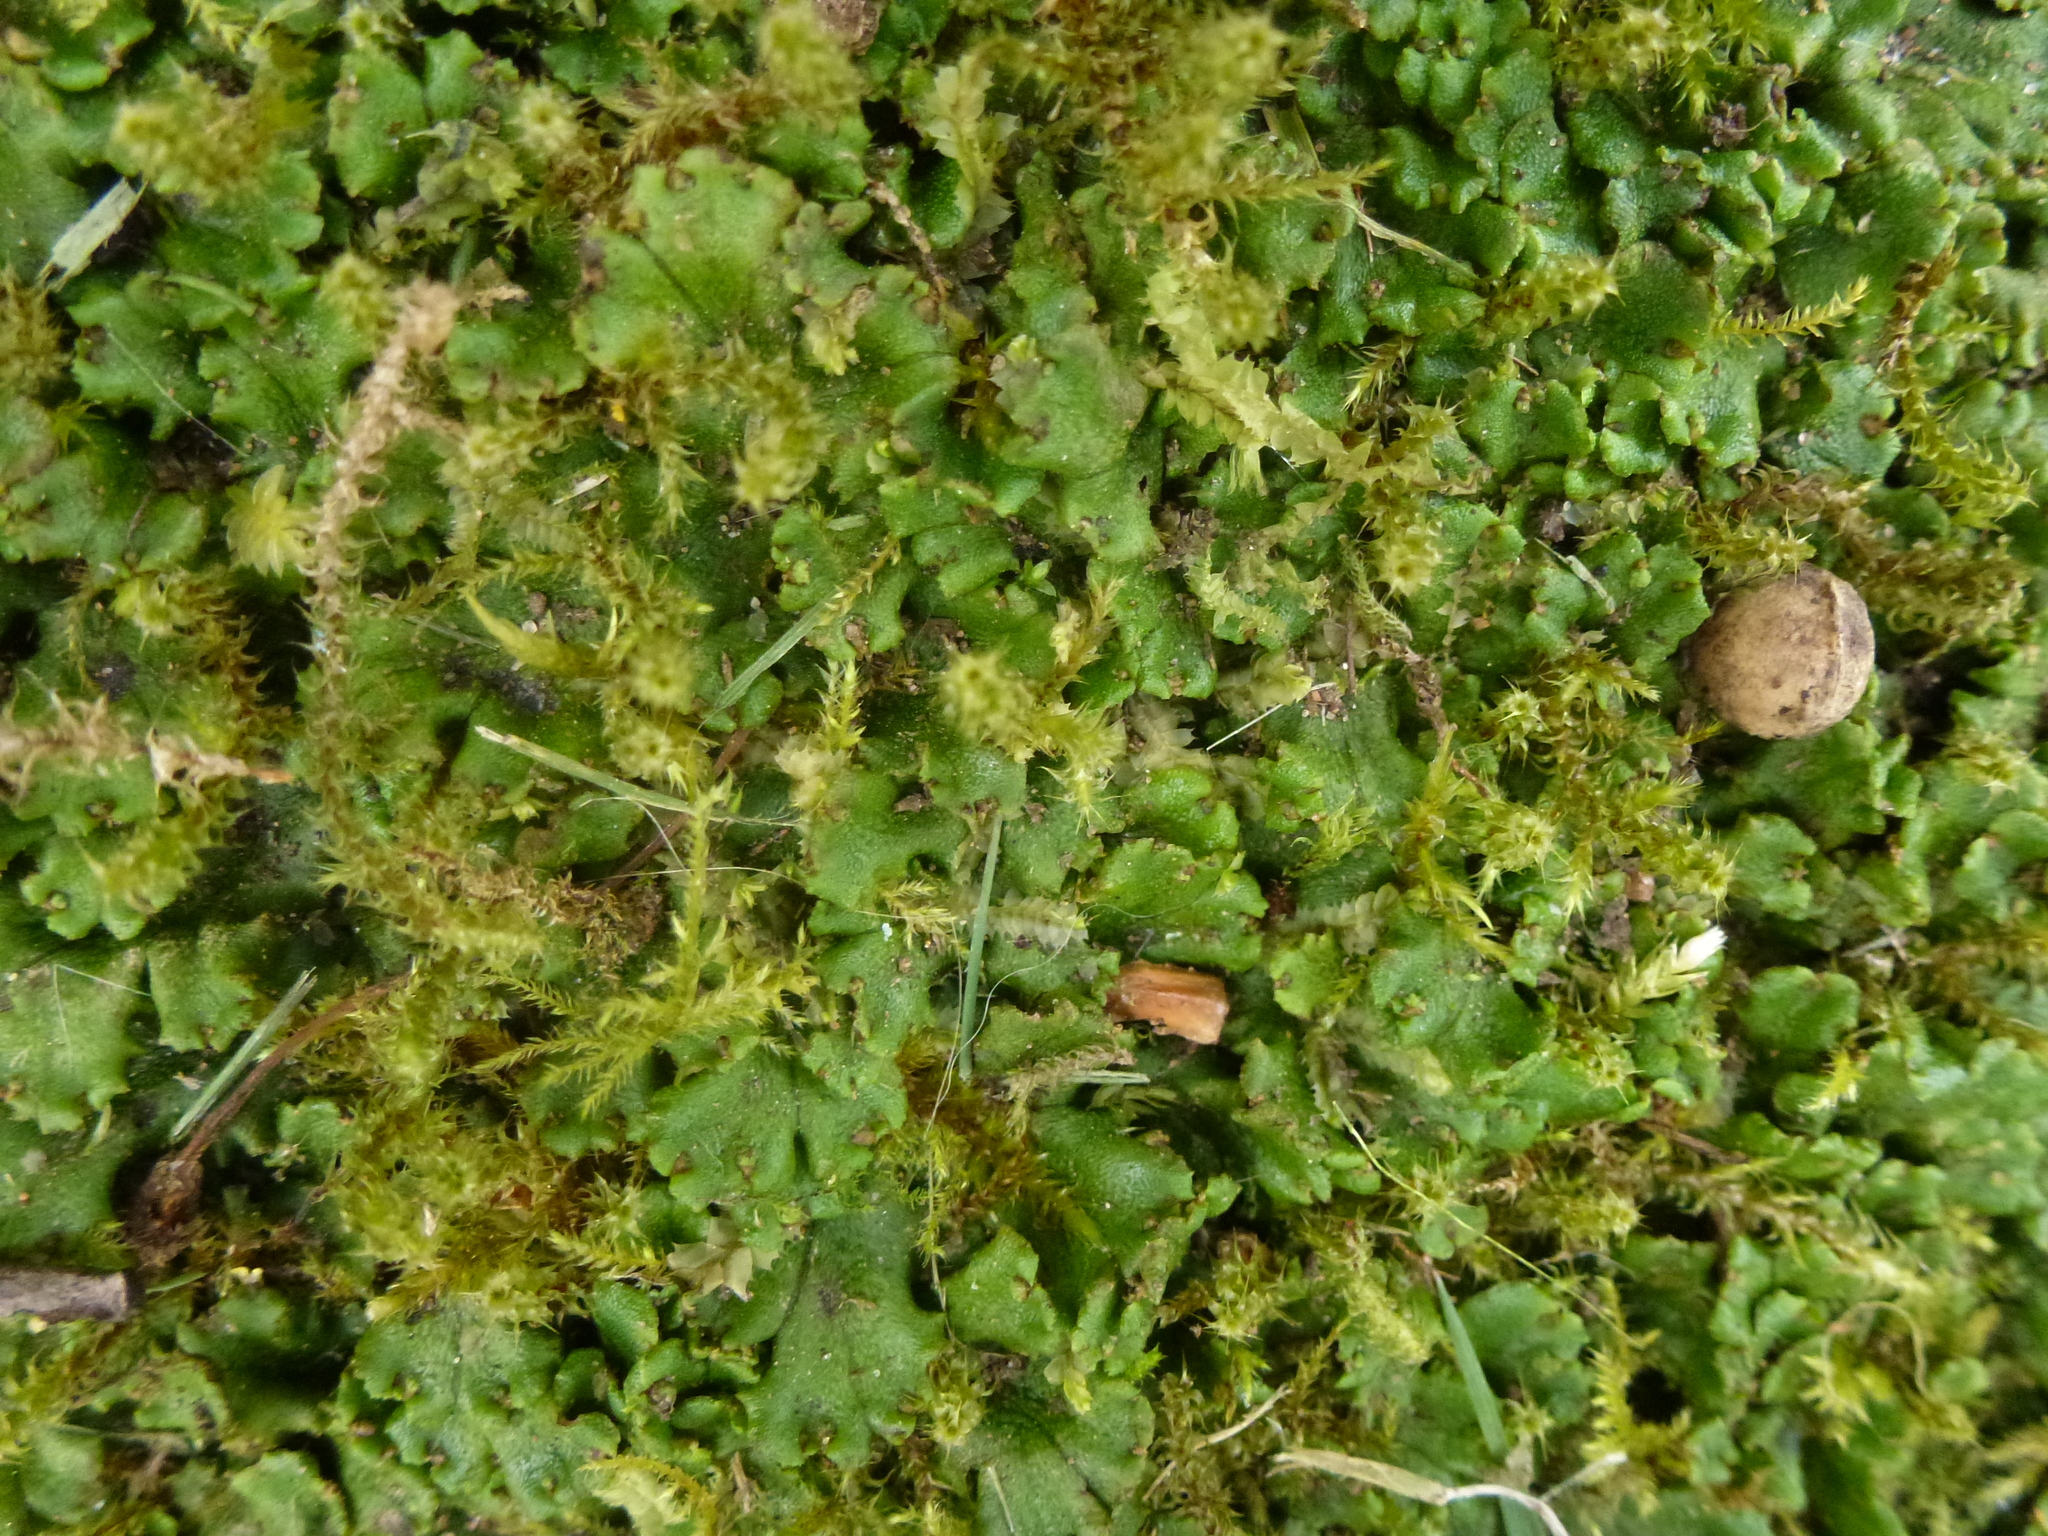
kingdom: Plantae
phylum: Marchantiophyta
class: Marchantiopsida
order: Marchantiales
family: Marchantiaceae
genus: Marchantia
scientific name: Marchantia polymorpha
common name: Common liverwort
